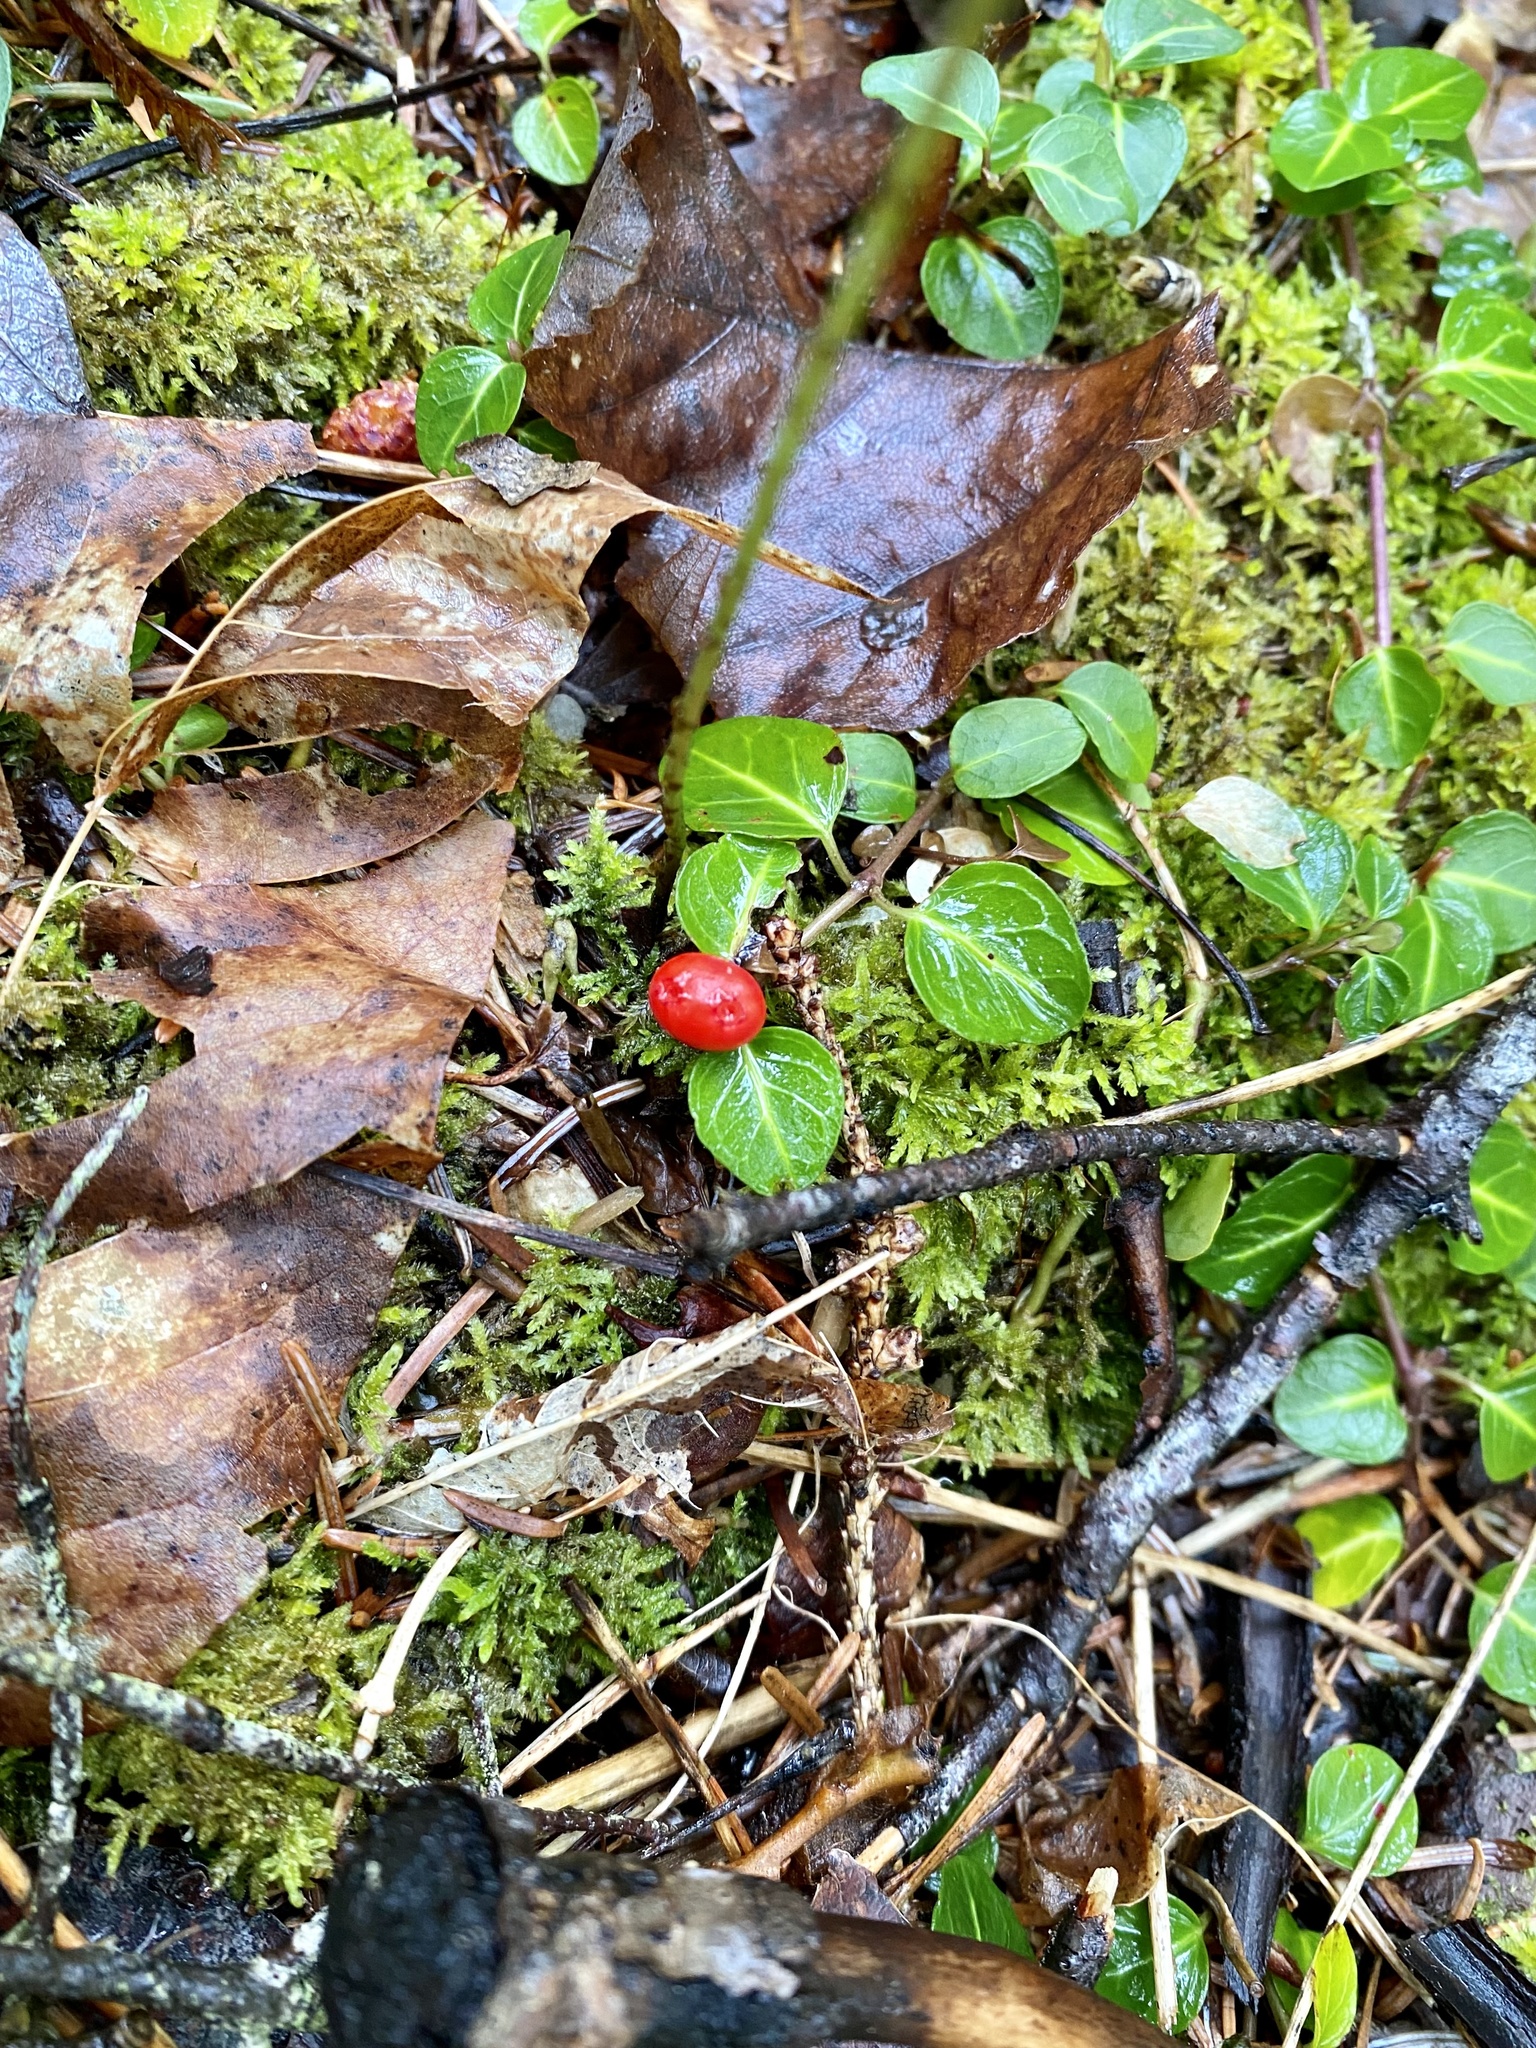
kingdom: Plantae
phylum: Tracheophyta
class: Magnoliopsida
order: Gentianales
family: Rubiaceae
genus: Mitchella
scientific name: Mitchella repens
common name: Partridge-berry
